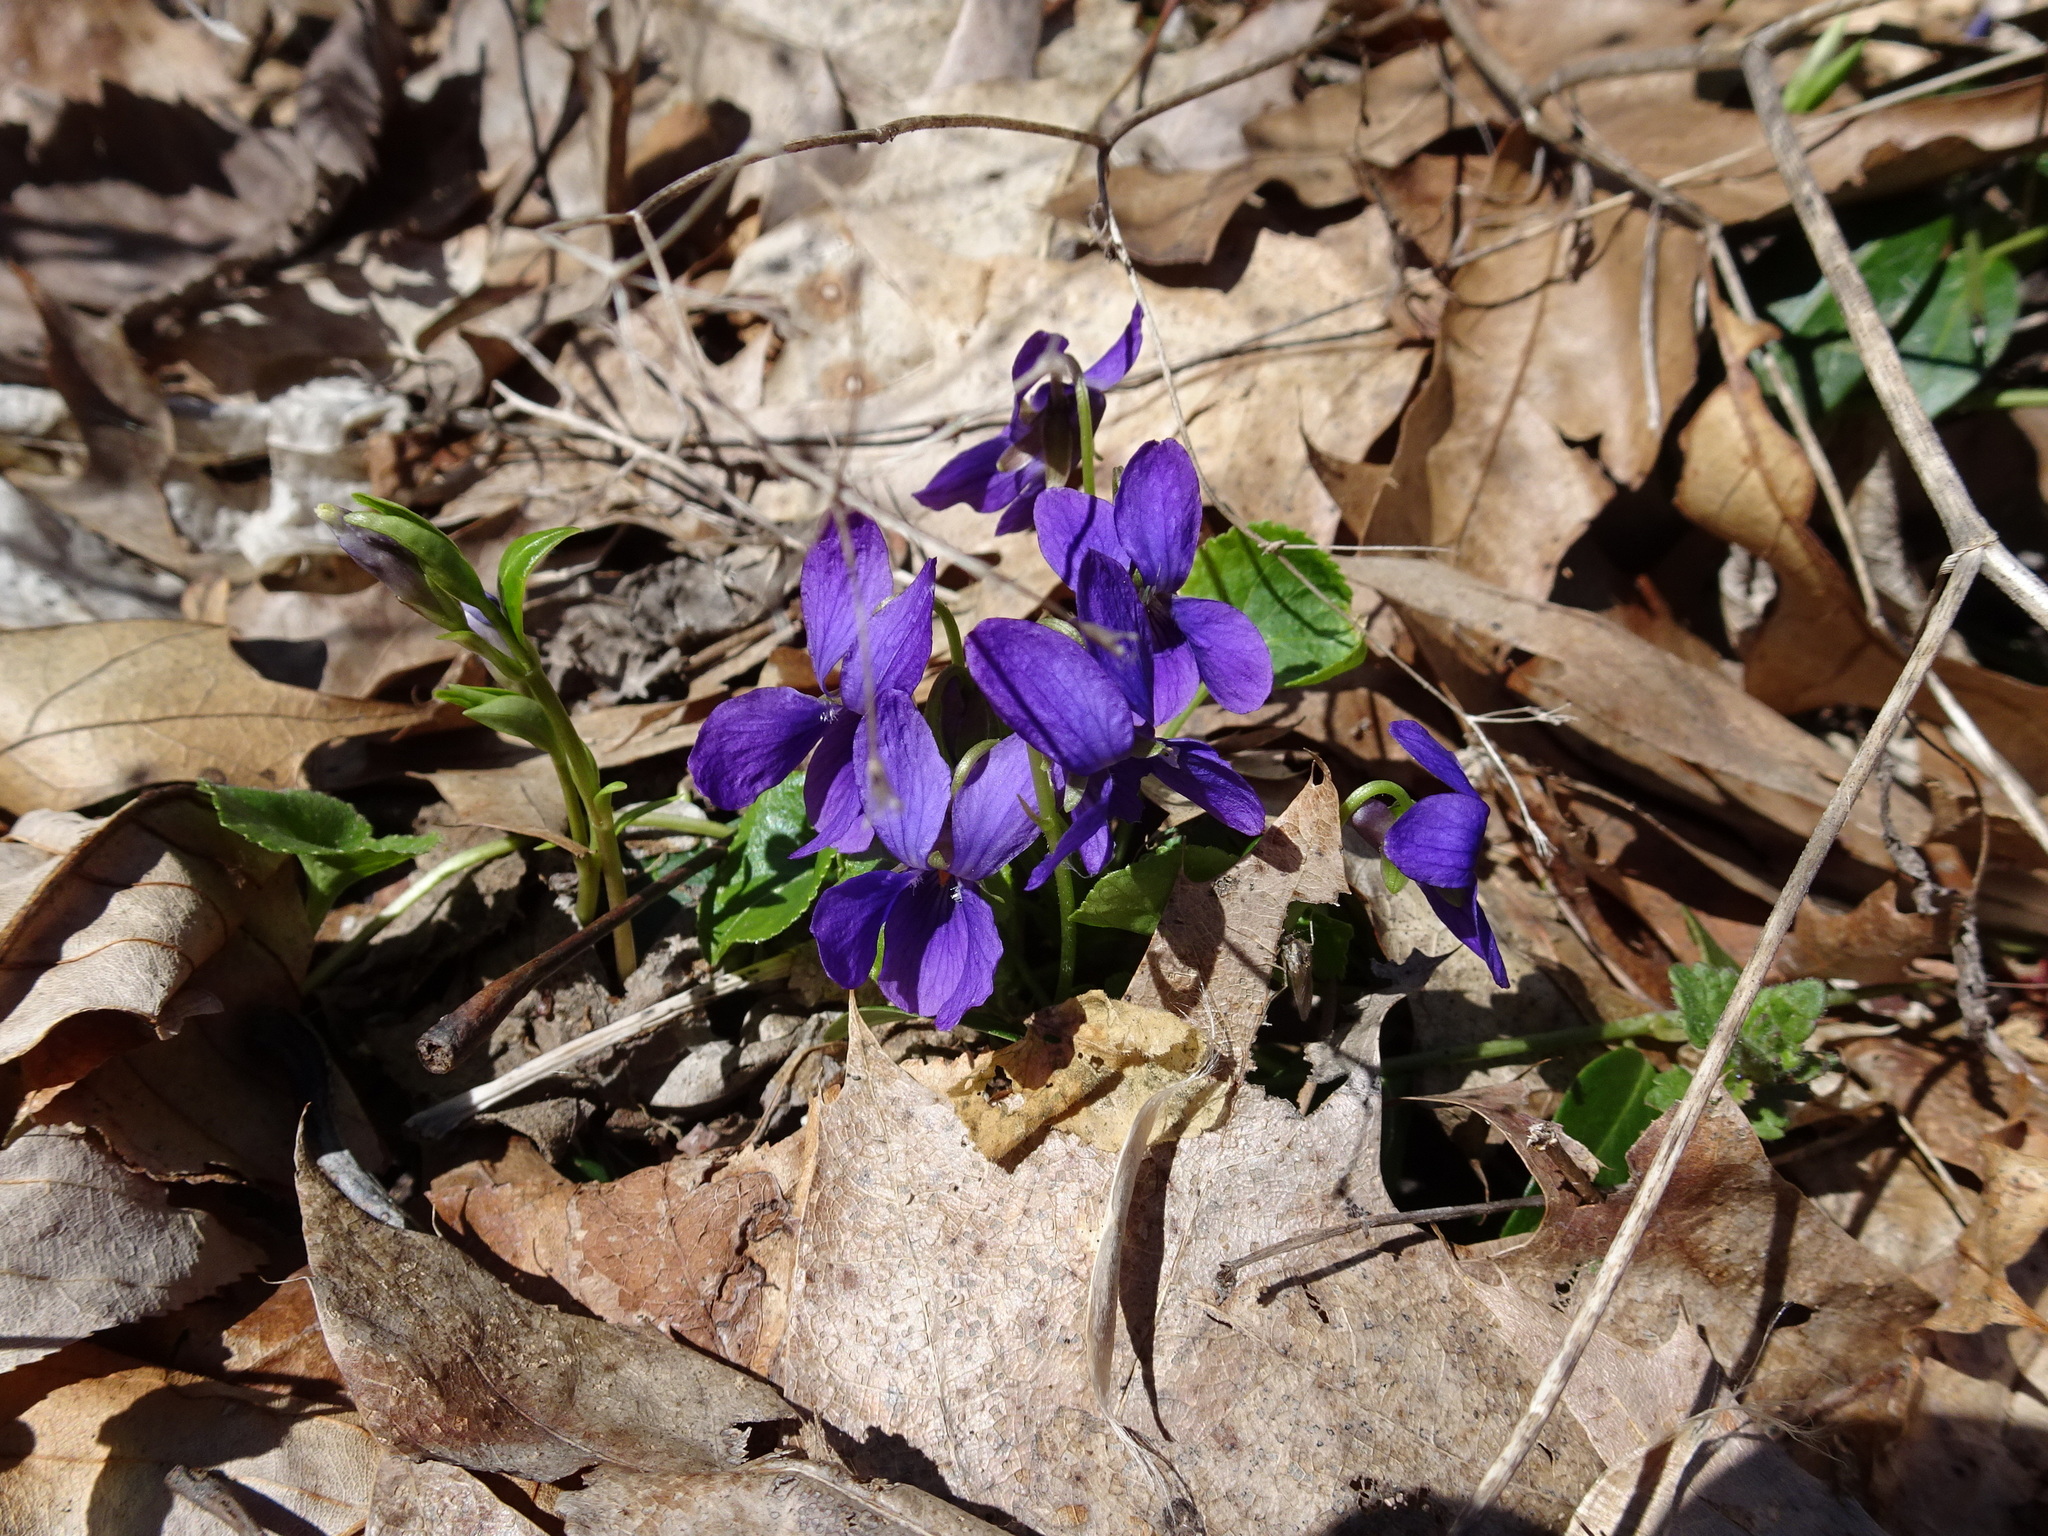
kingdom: Plantae
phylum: Tracheophyta
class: Magnoliopsida
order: Malpighiales
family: Violaceae
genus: Viola
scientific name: Viola odorata
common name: Sweet violet
